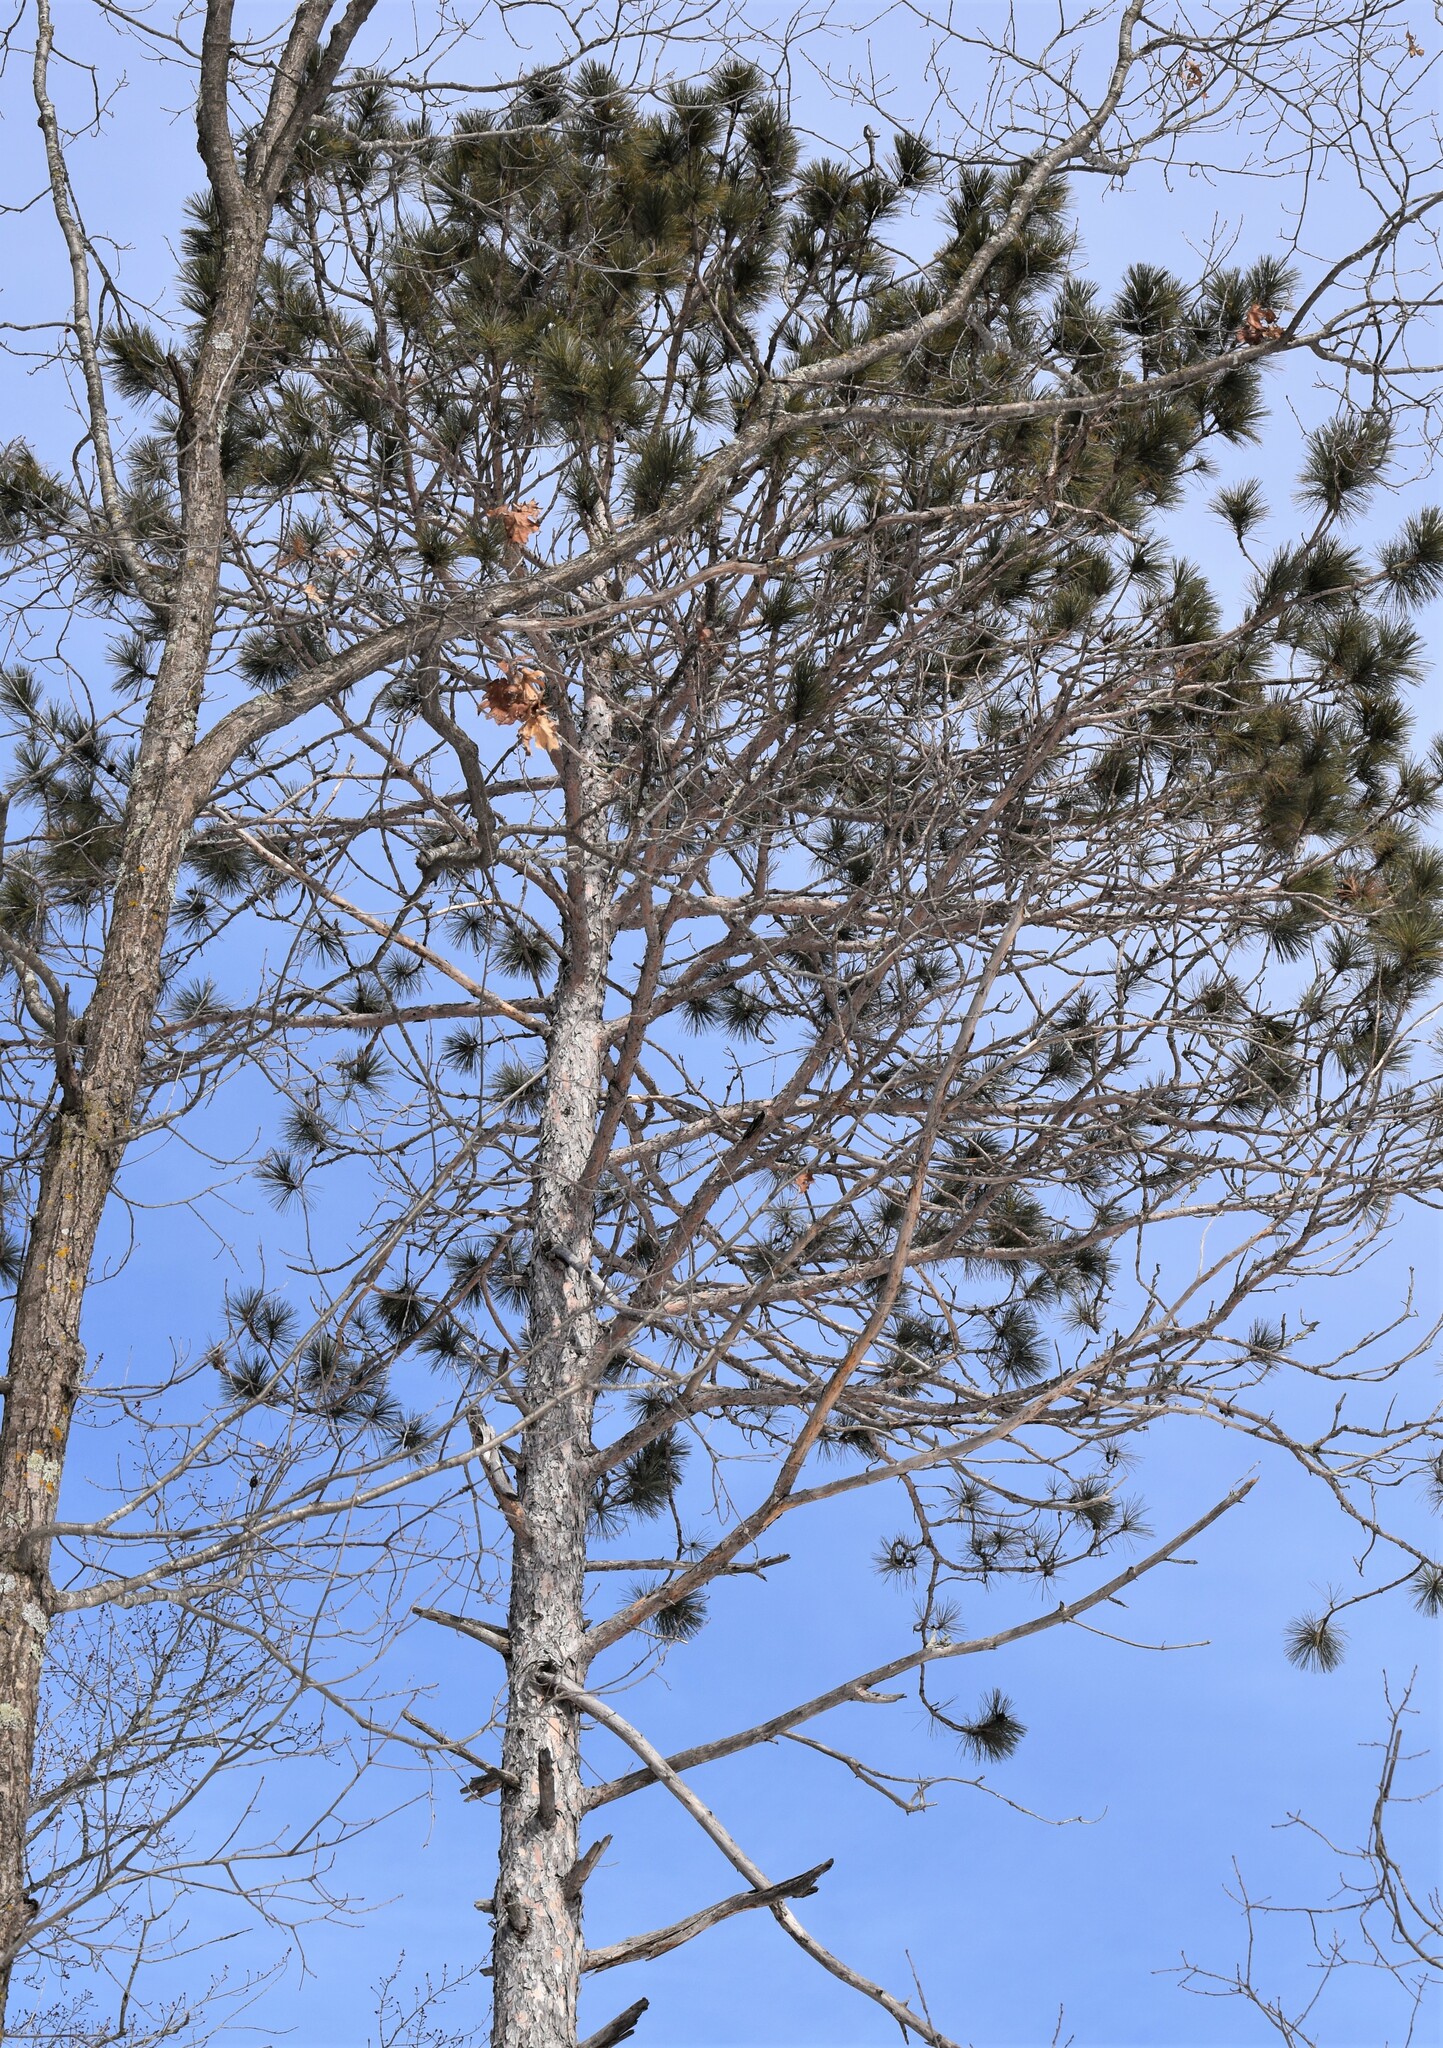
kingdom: Plantae
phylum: Tracheophyta
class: Pinopsida
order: Pinales
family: Pinaceae
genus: Pinus
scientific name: Pinus resinosa
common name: Norway pine
